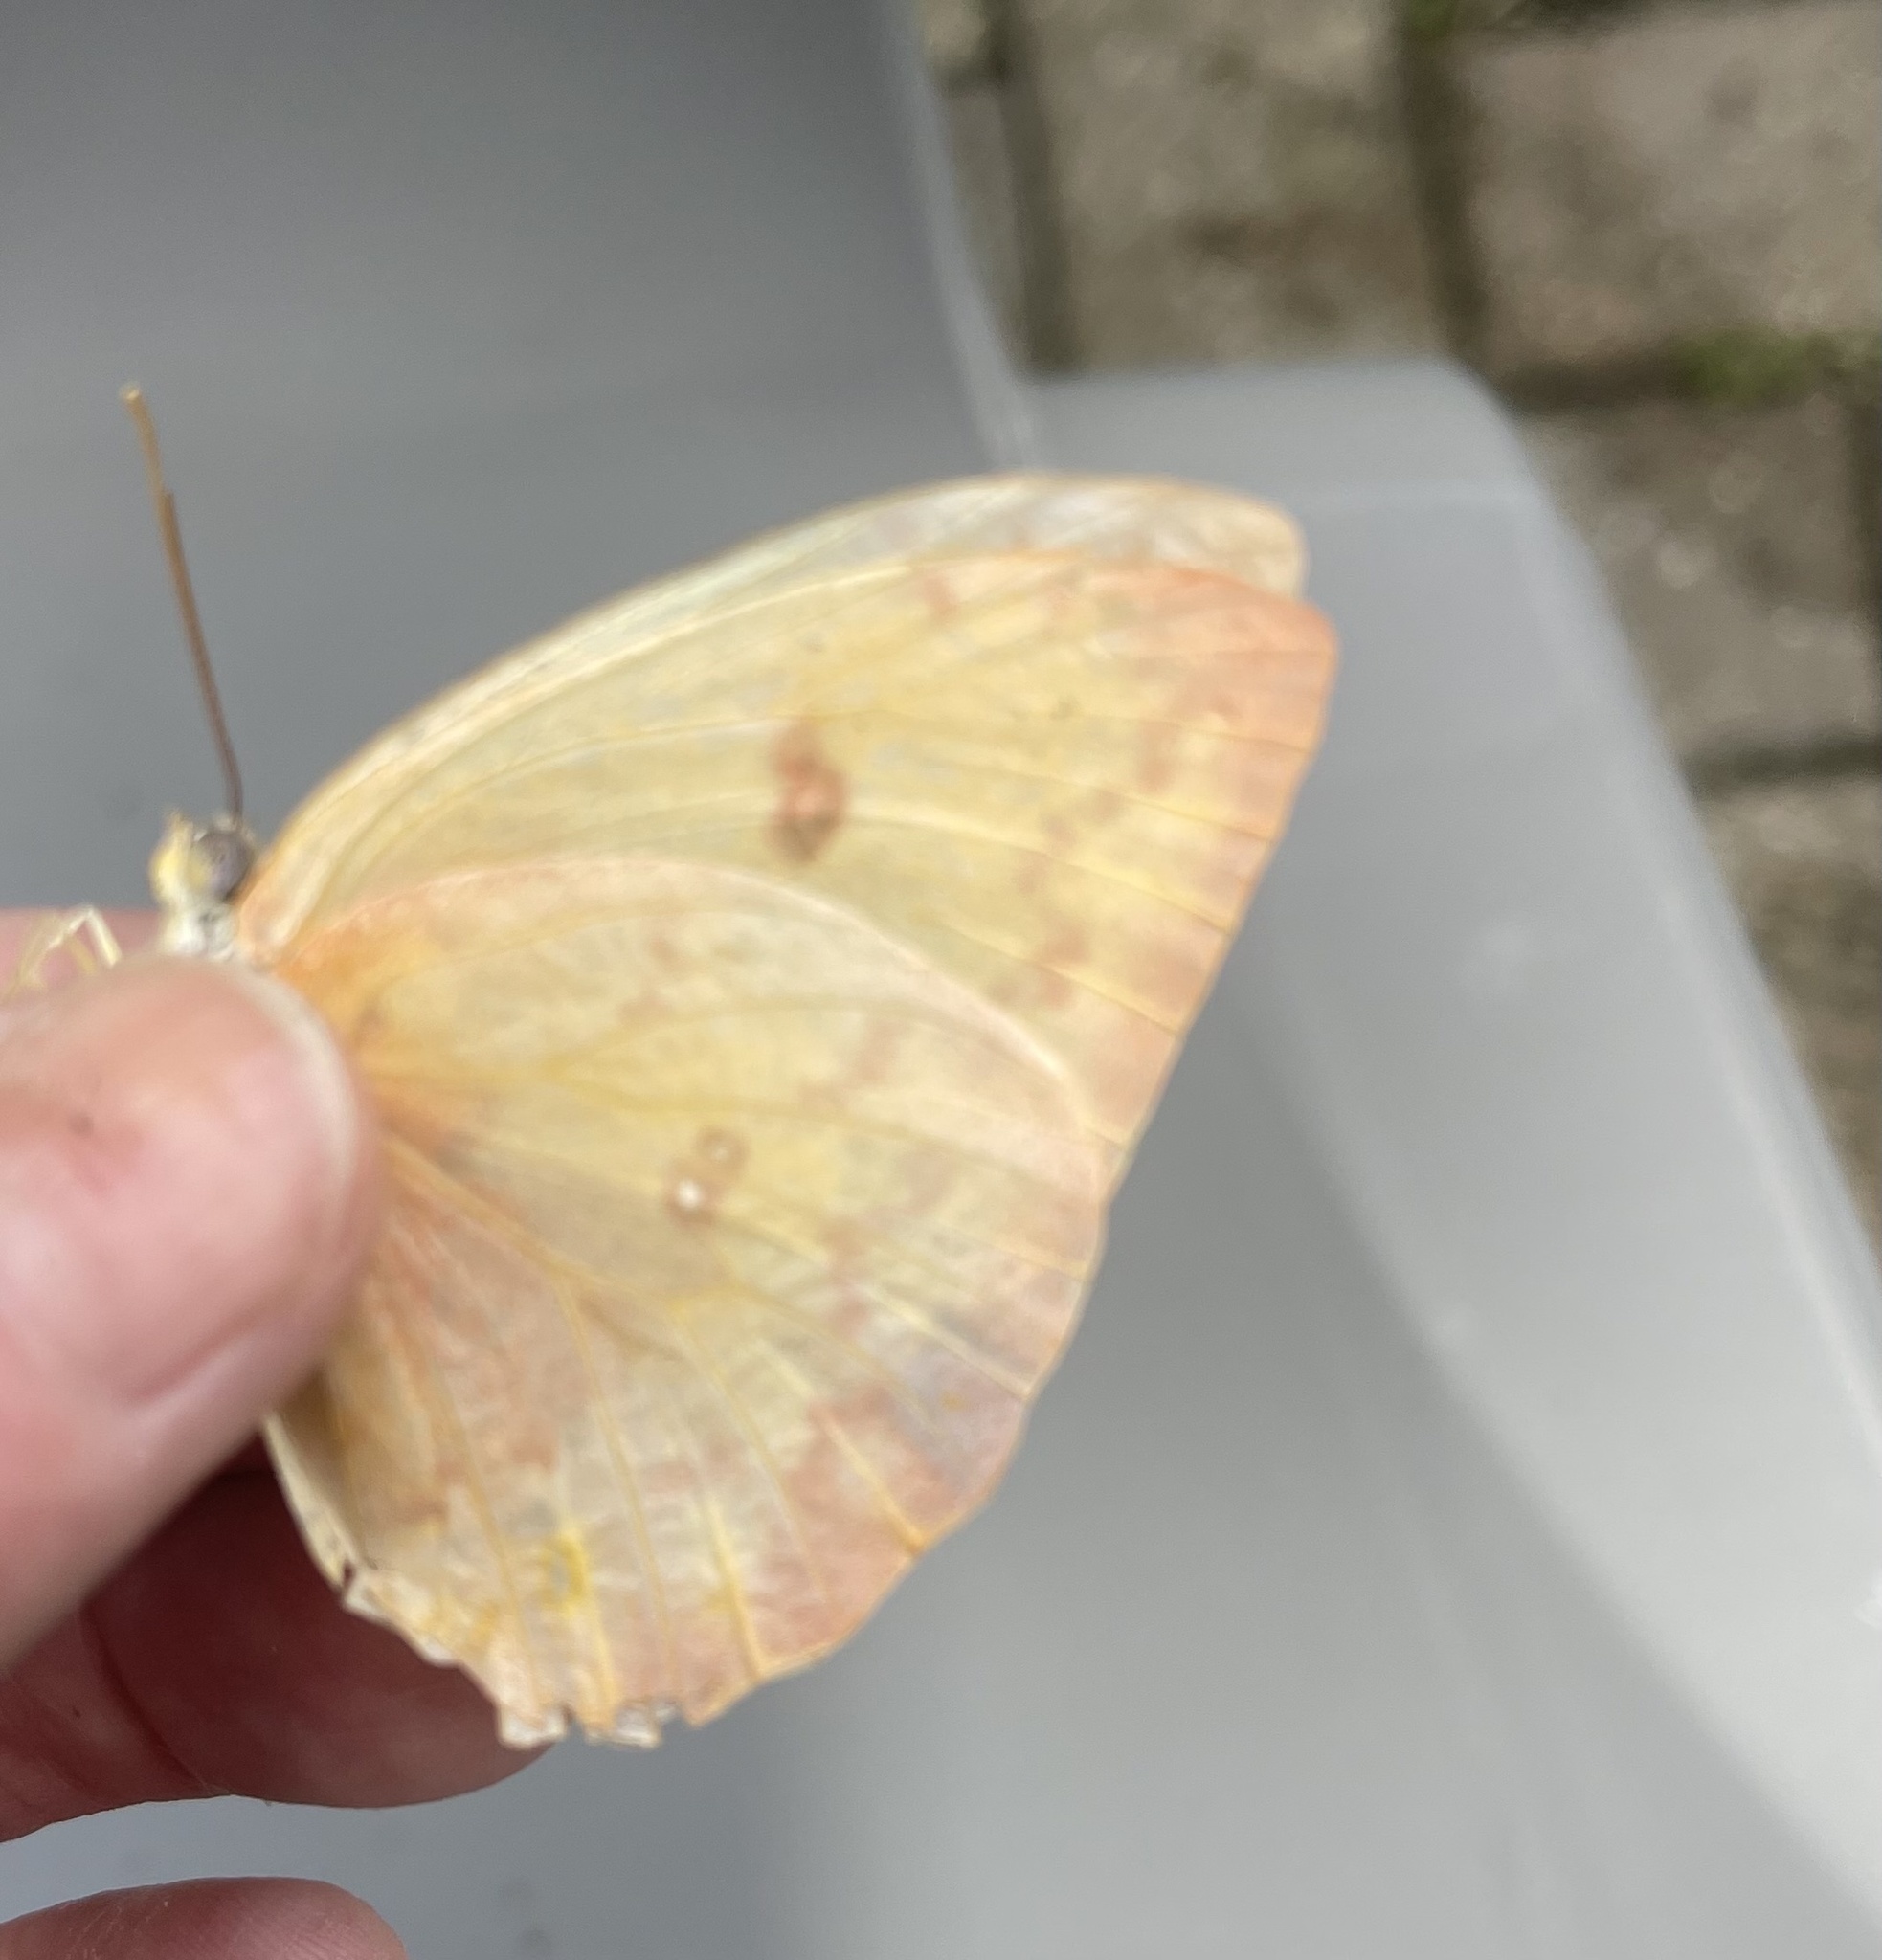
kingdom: Animalia
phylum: Arthropoda
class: Insecta
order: Lepidoptera
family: Pieridae
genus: Phoebis
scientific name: Phoebis philea
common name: Orange-barred giant sulphur
